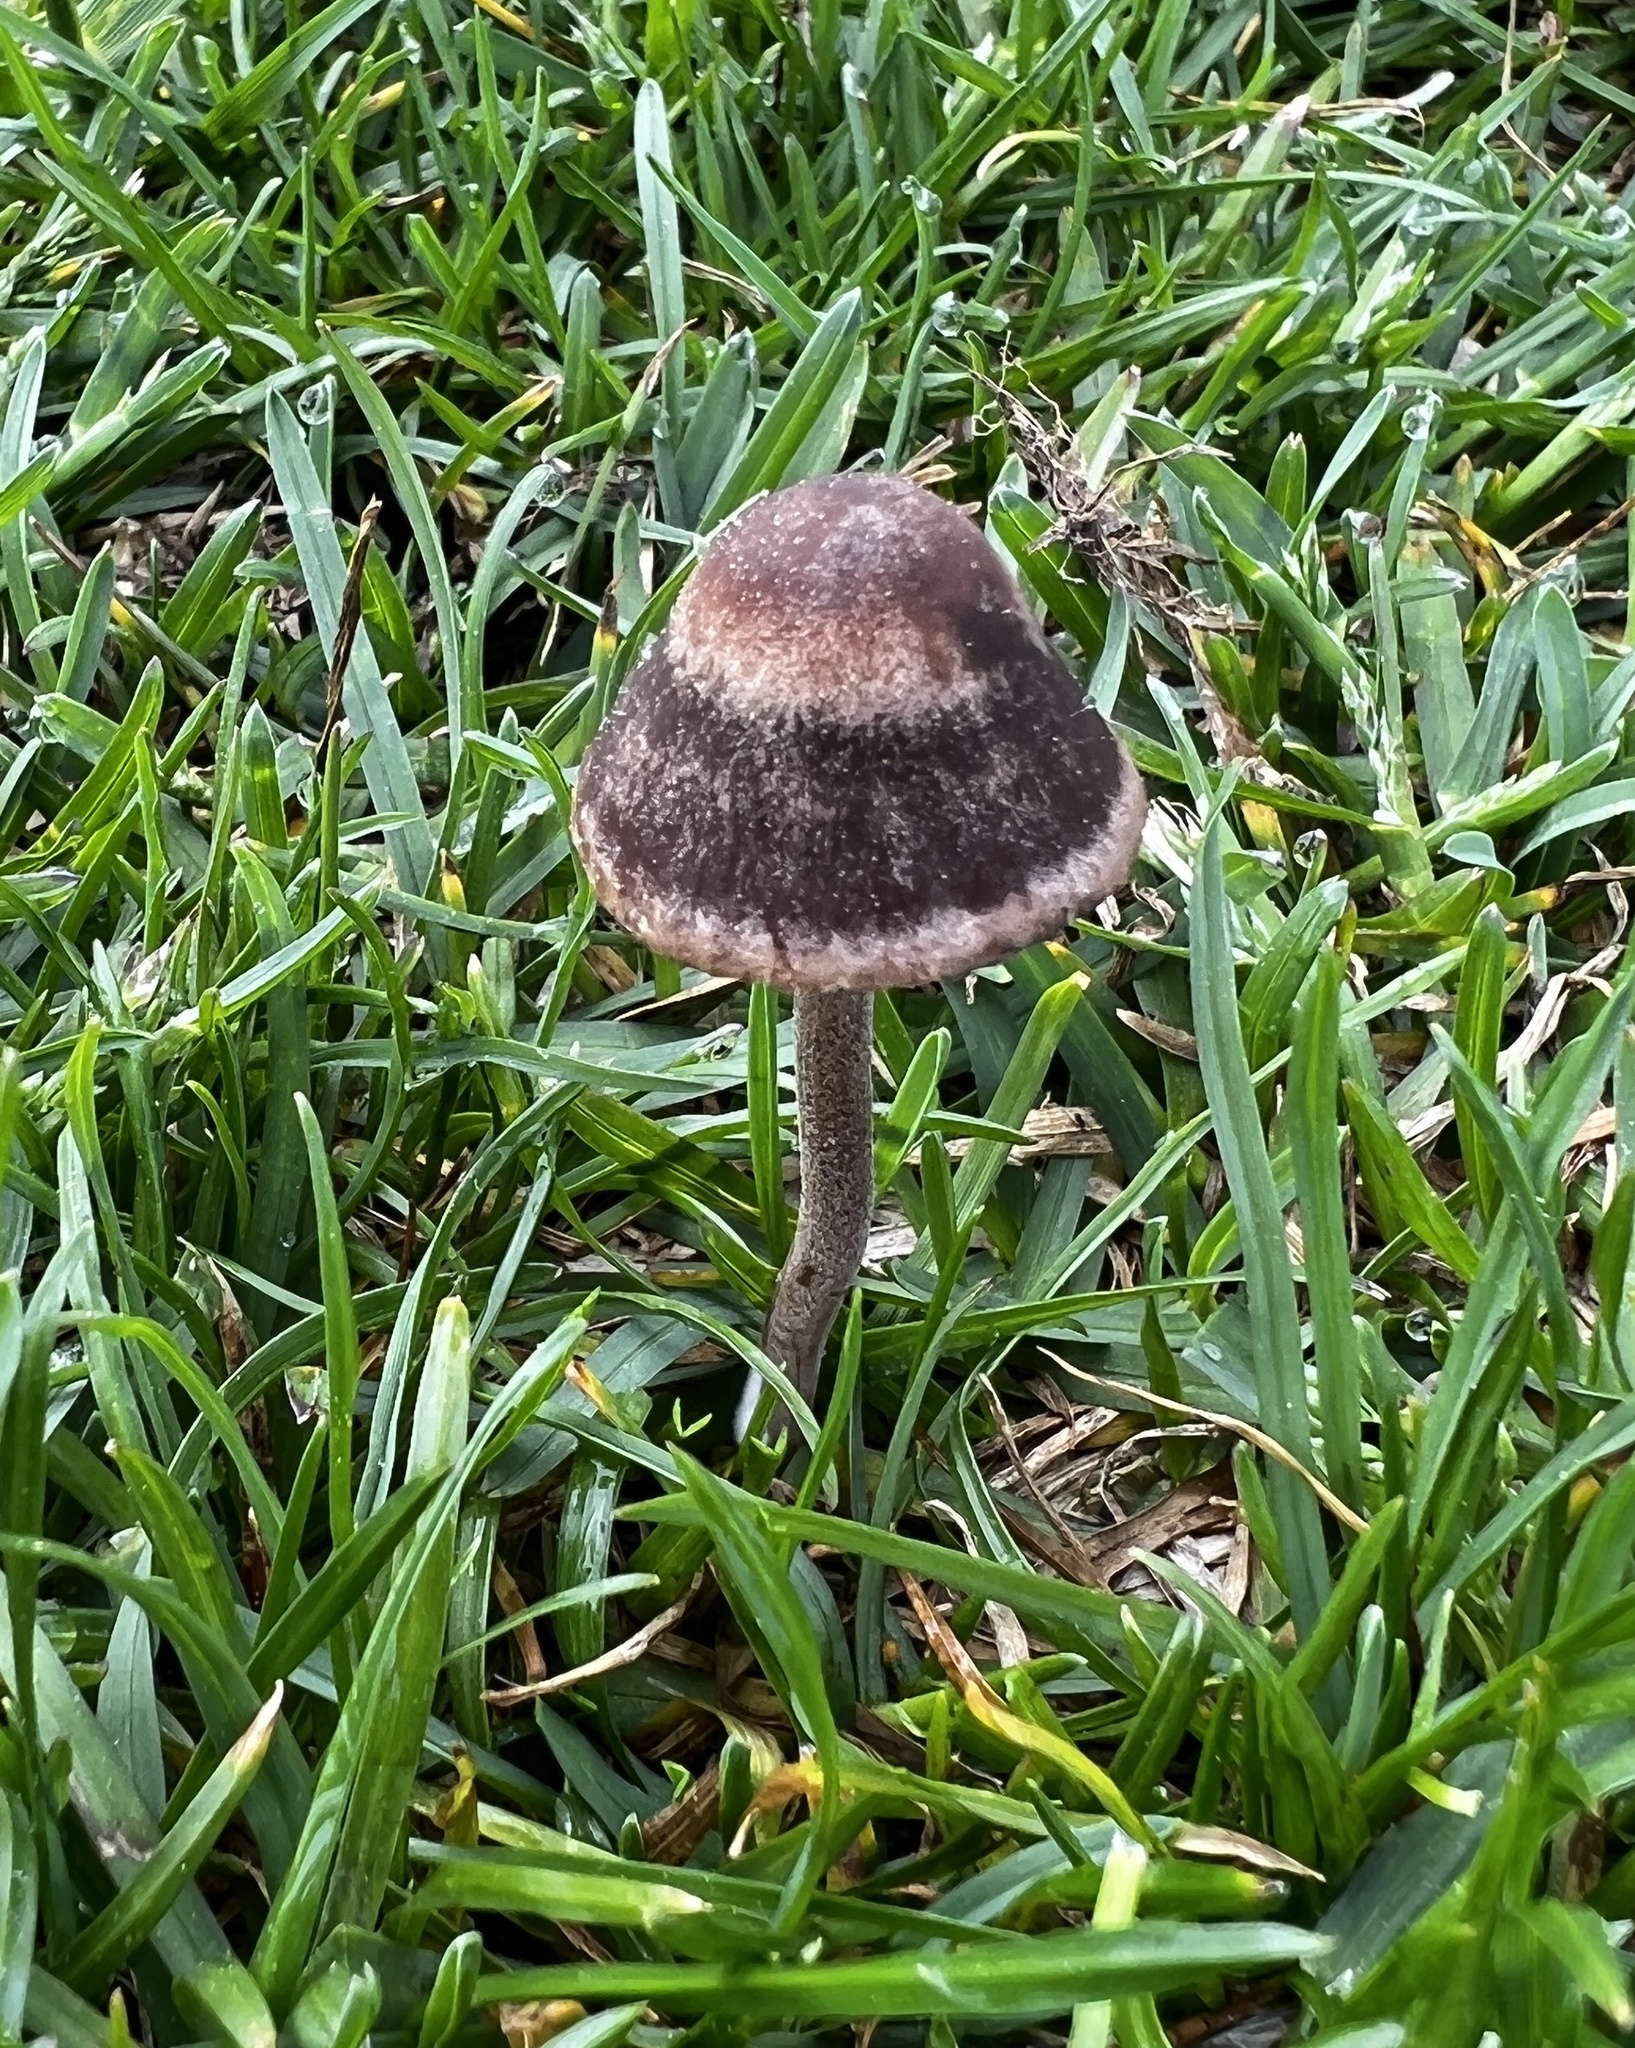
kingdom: Fungi
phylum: Basidiomycota
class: Agaricomycetes
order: Agaricales
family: Bolbitiaceae
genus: Panaeolina
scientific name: Panaeolina foenisecii
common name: Brown hay cap
